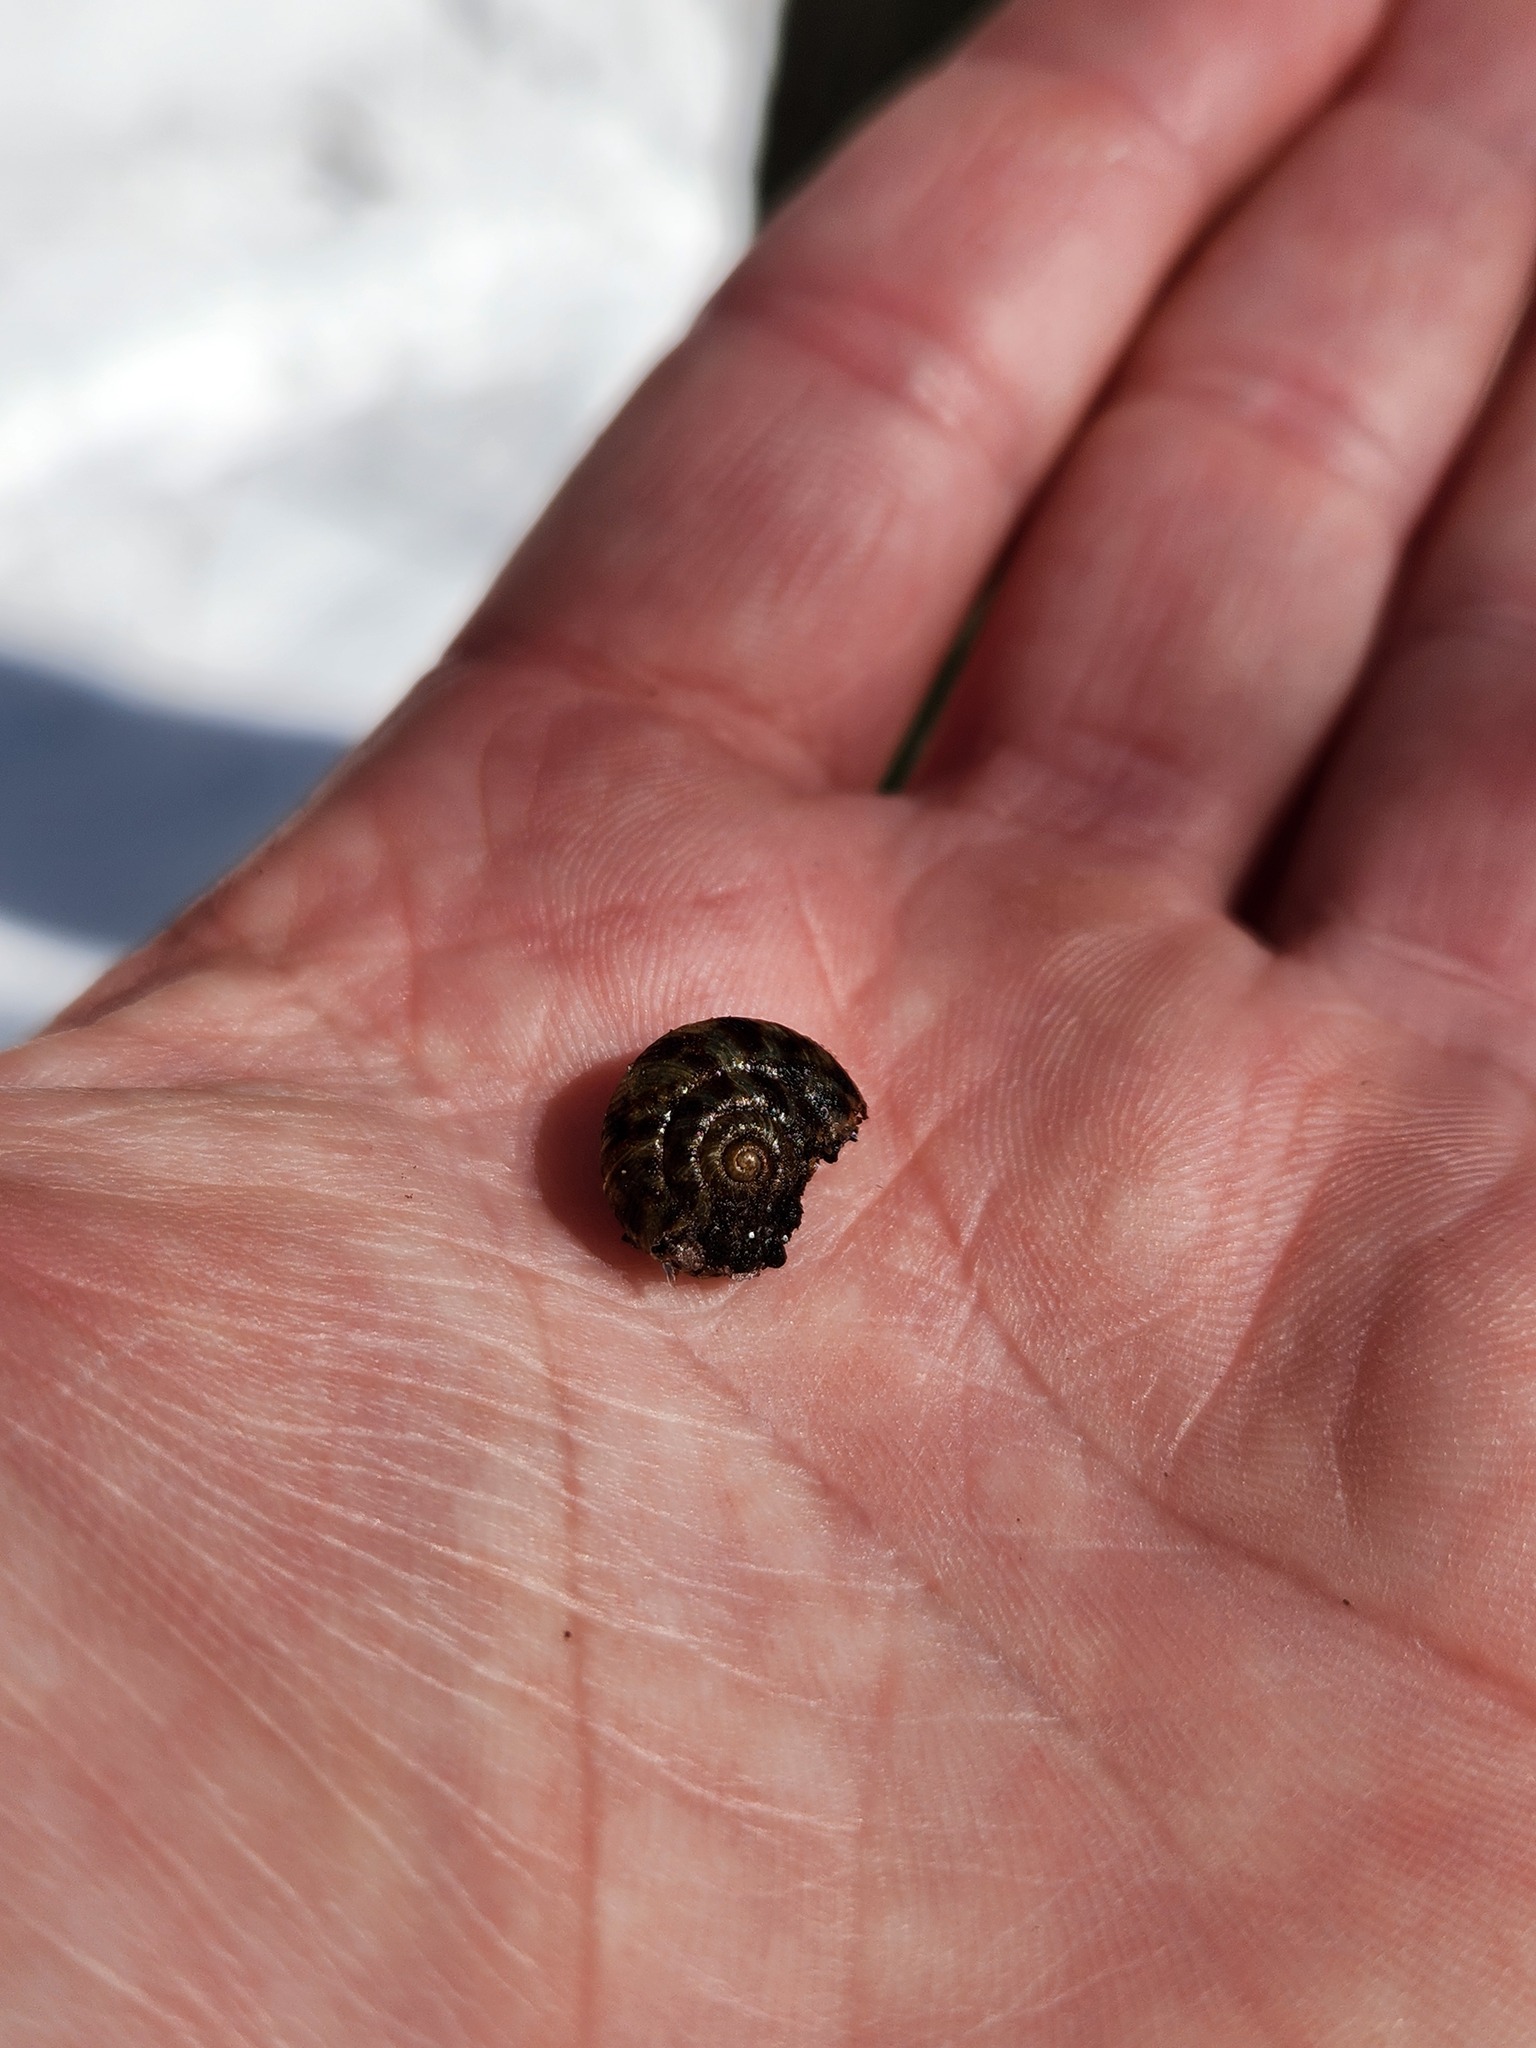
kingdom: Animalia
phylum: Mollusca
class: Gastropoda
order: Stylommatophora
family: Discidae
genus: Anguispira
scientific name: Anguispira alternata
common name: Flamed tigersnail
